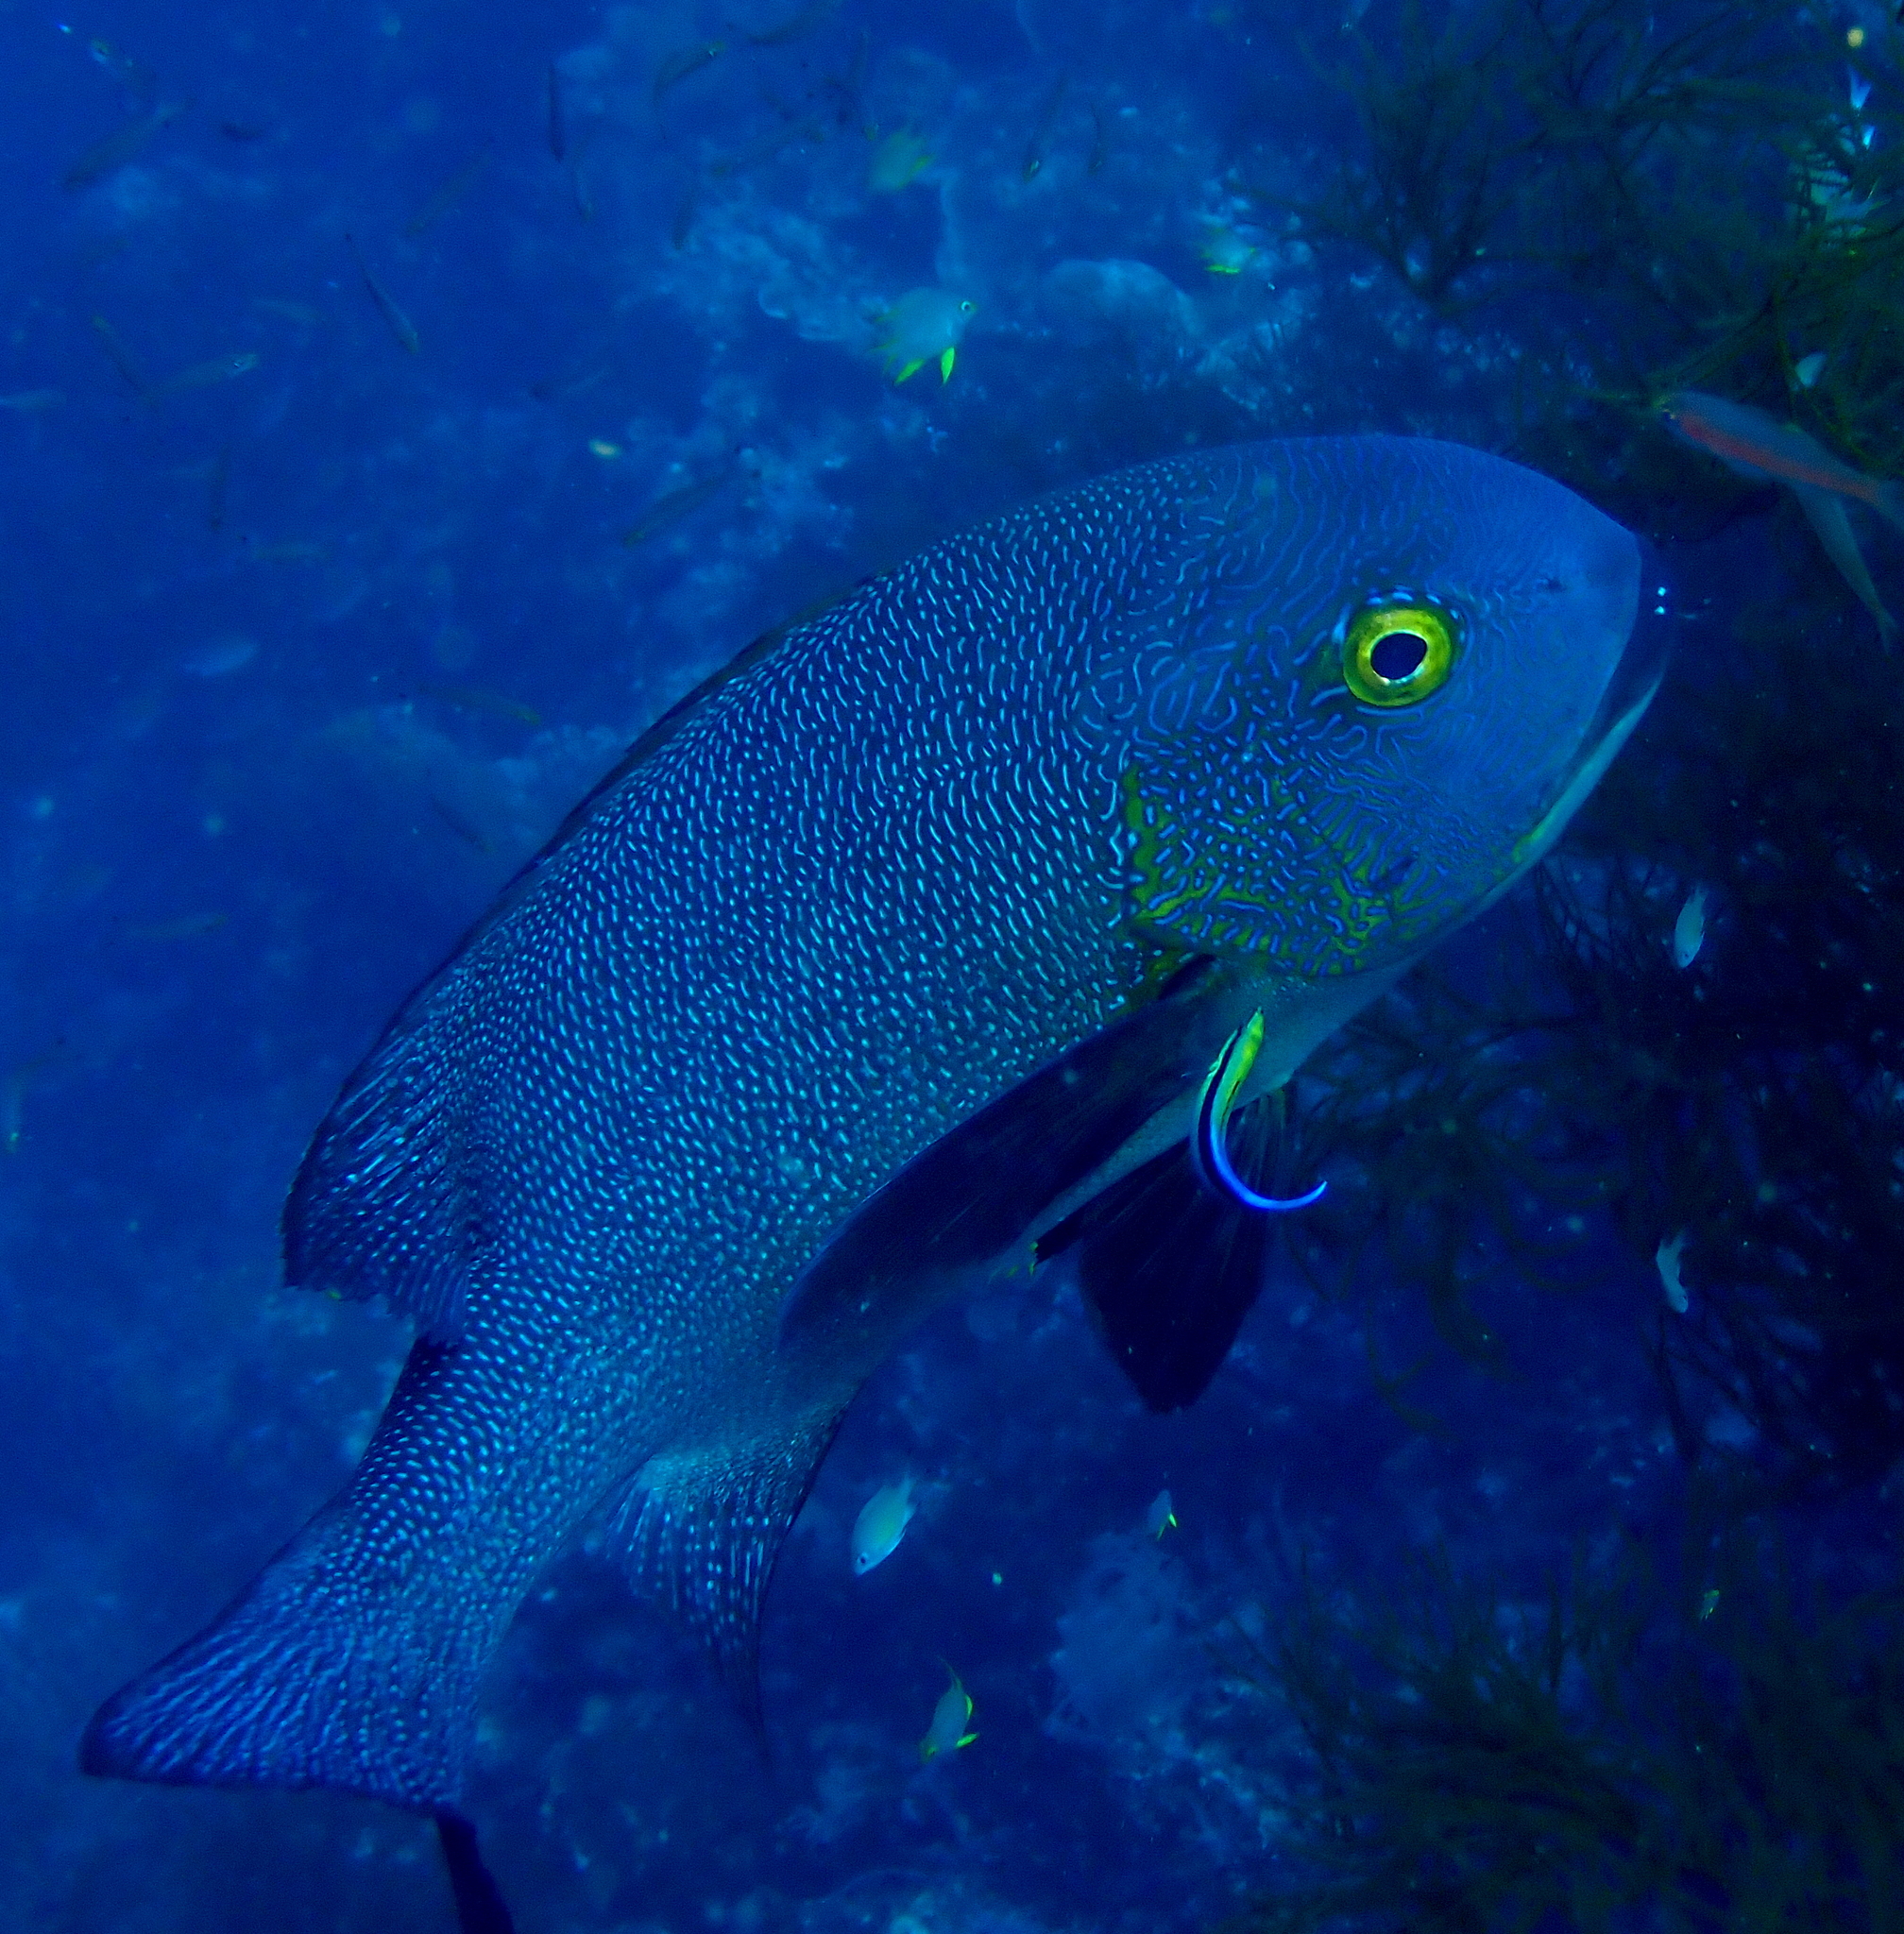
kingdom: Animalia
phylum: Chordata
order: Perciformes
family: Lutjanidae
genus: Macolor
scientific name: Macolor macularis
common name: Midnight snapper
